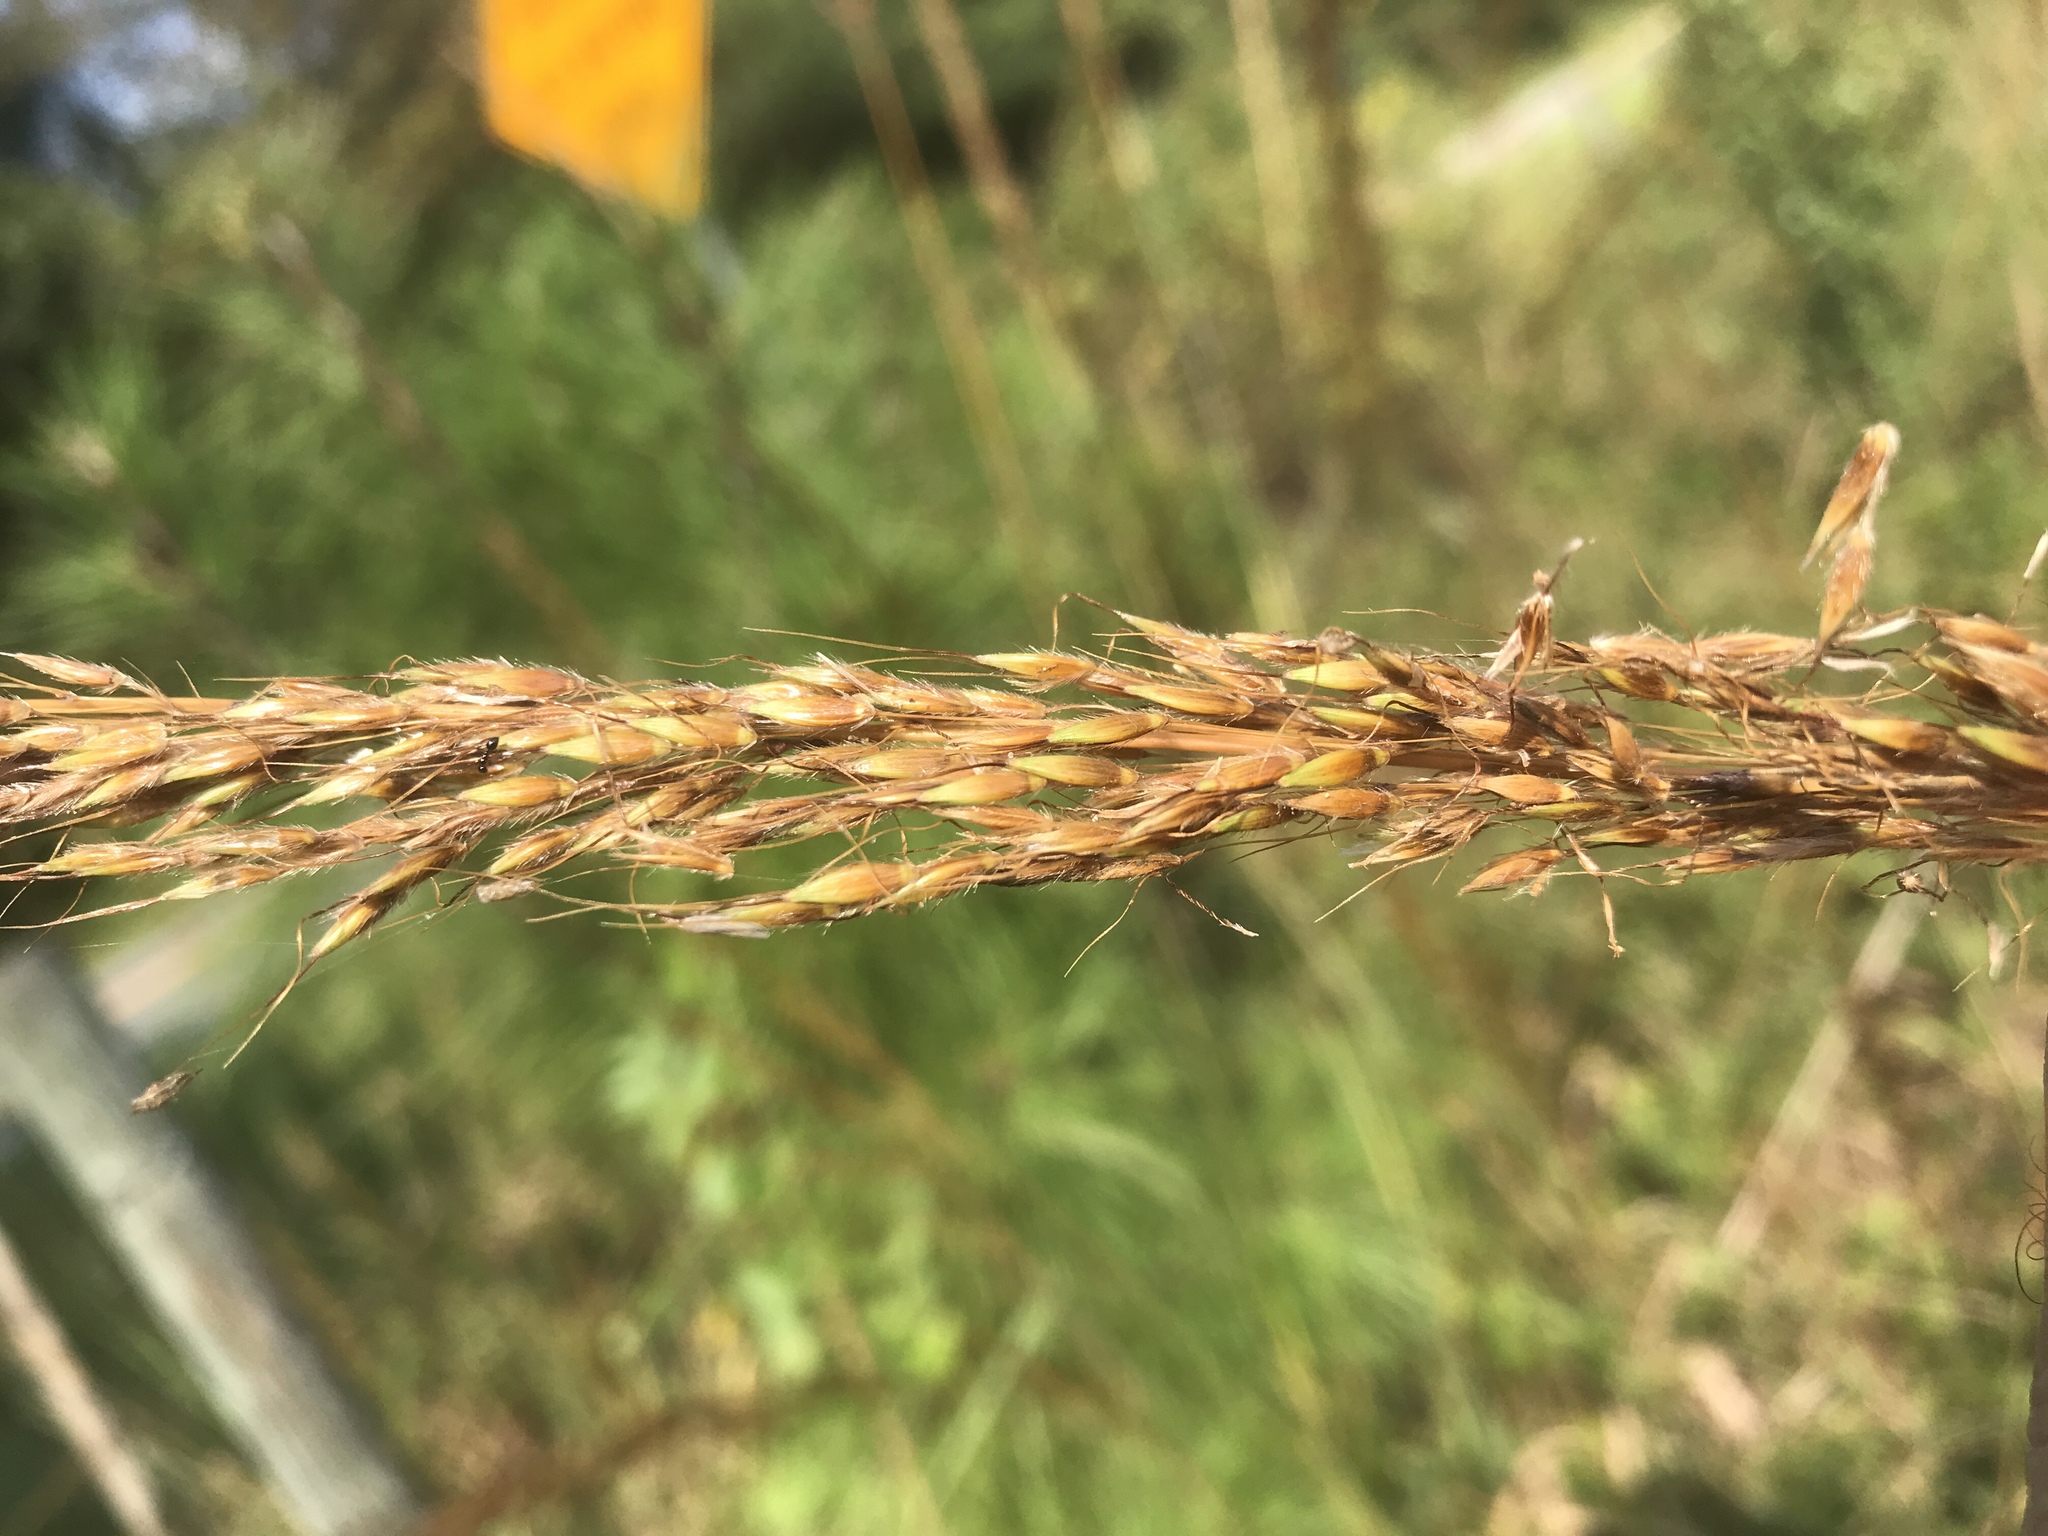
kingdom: Plantae
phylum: Tracheophyta
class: Liliopsida
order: Poales
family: Poaceae
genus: Sorghastrum
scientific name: Sorghastrum nutans
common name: Indian grass
